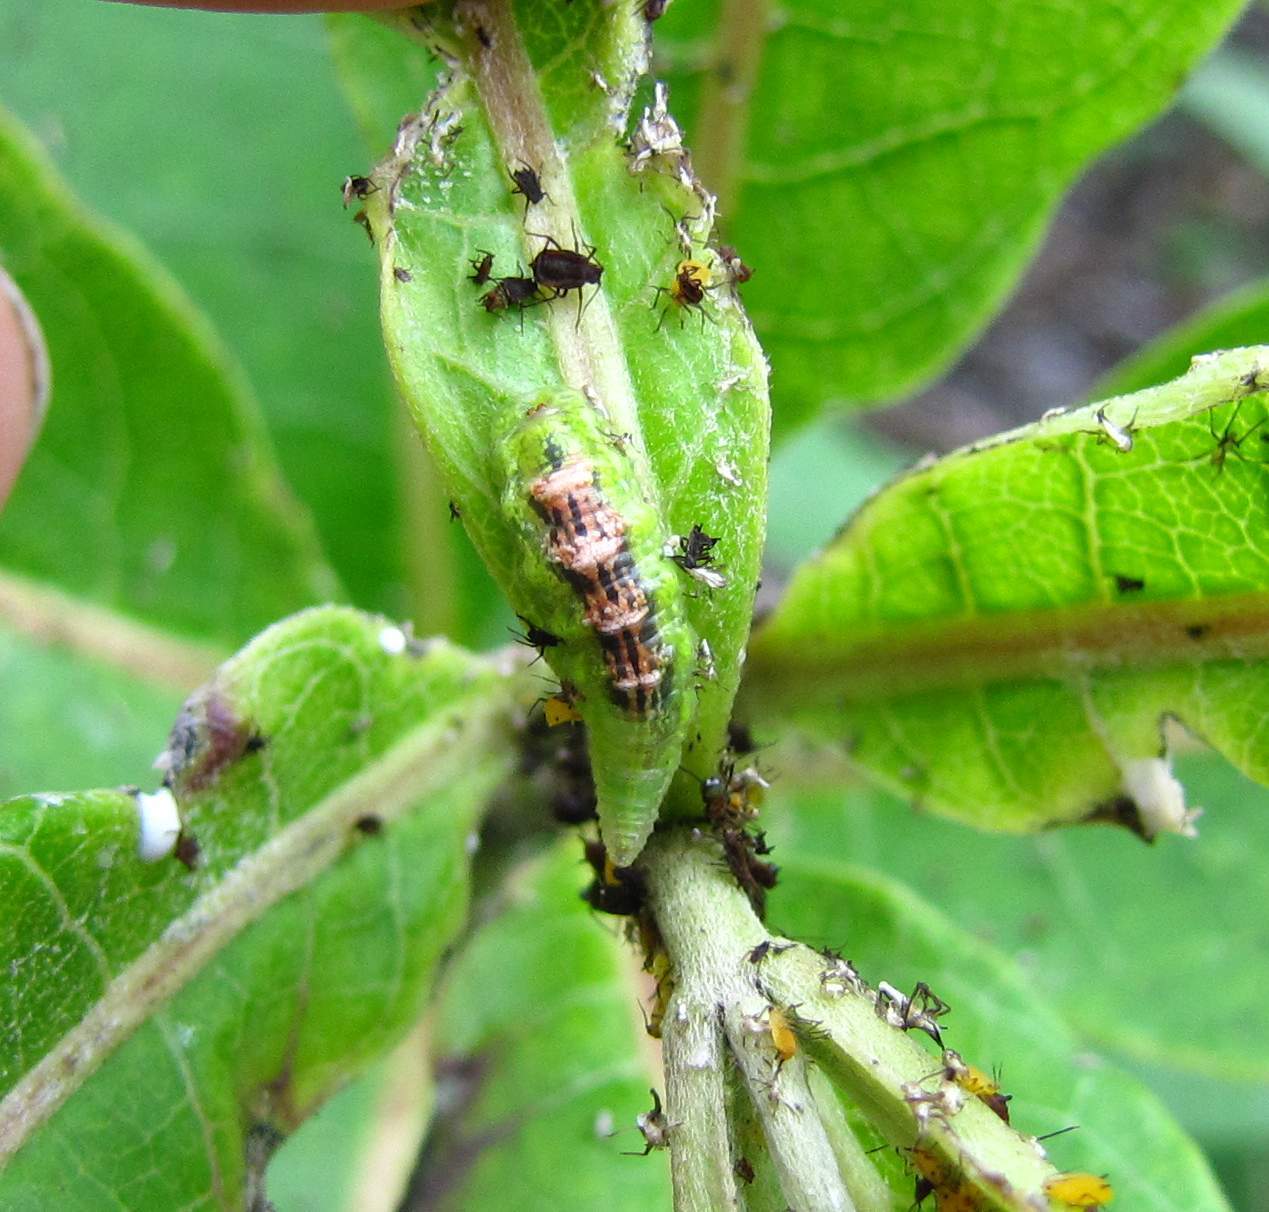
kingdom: Animalia
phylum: Arthropoda
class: Insecta
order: Diptera
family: Syrphidae
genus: Eupeodes
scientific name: Eupeodes pomus
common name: Short-tailed aphideater
